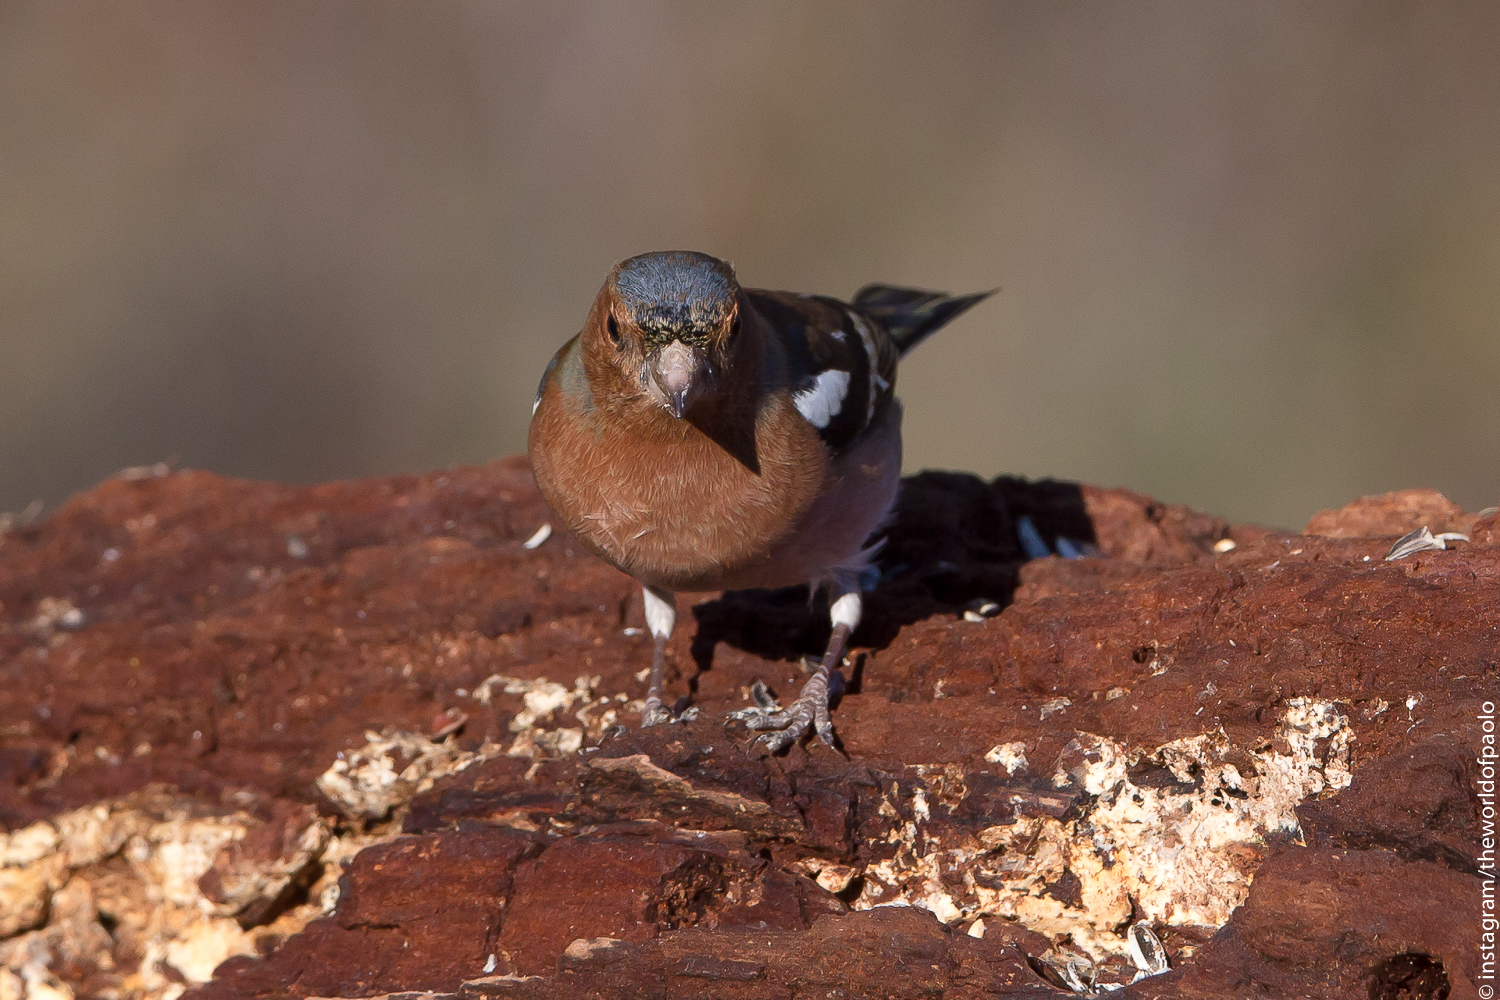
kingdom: Animalia
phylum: Chordata
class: Aves
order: Passeriformes
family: Fringillidae
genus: Fringilla
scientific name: Fringilla coelebs
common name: Common chaffinch
